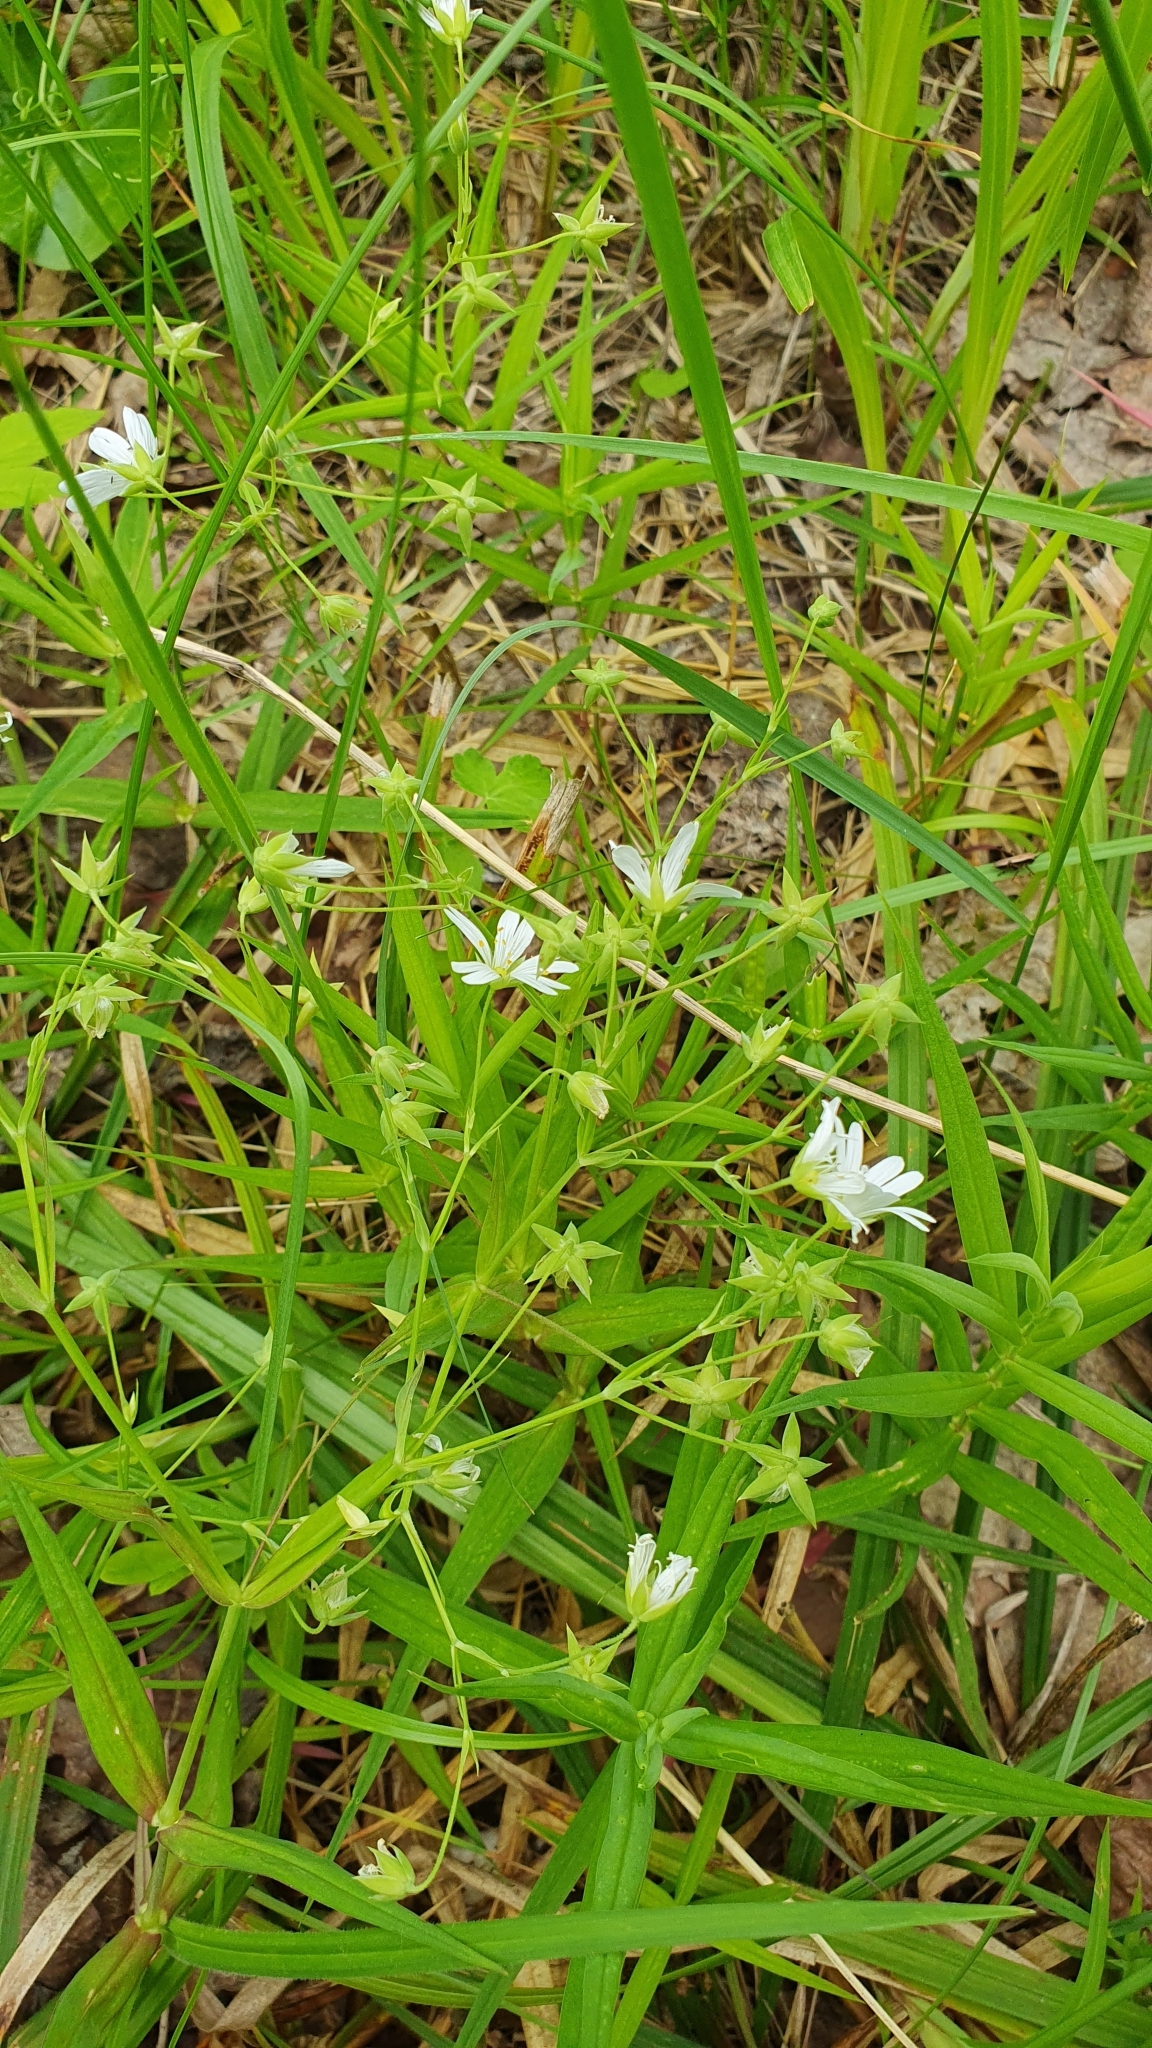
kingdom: Plantae
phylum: Tracheophyta
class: Magnoliopsida
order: Caryophyllales
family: Caryophyllaceae
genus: Rabelera
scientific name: Rabelera holostea
